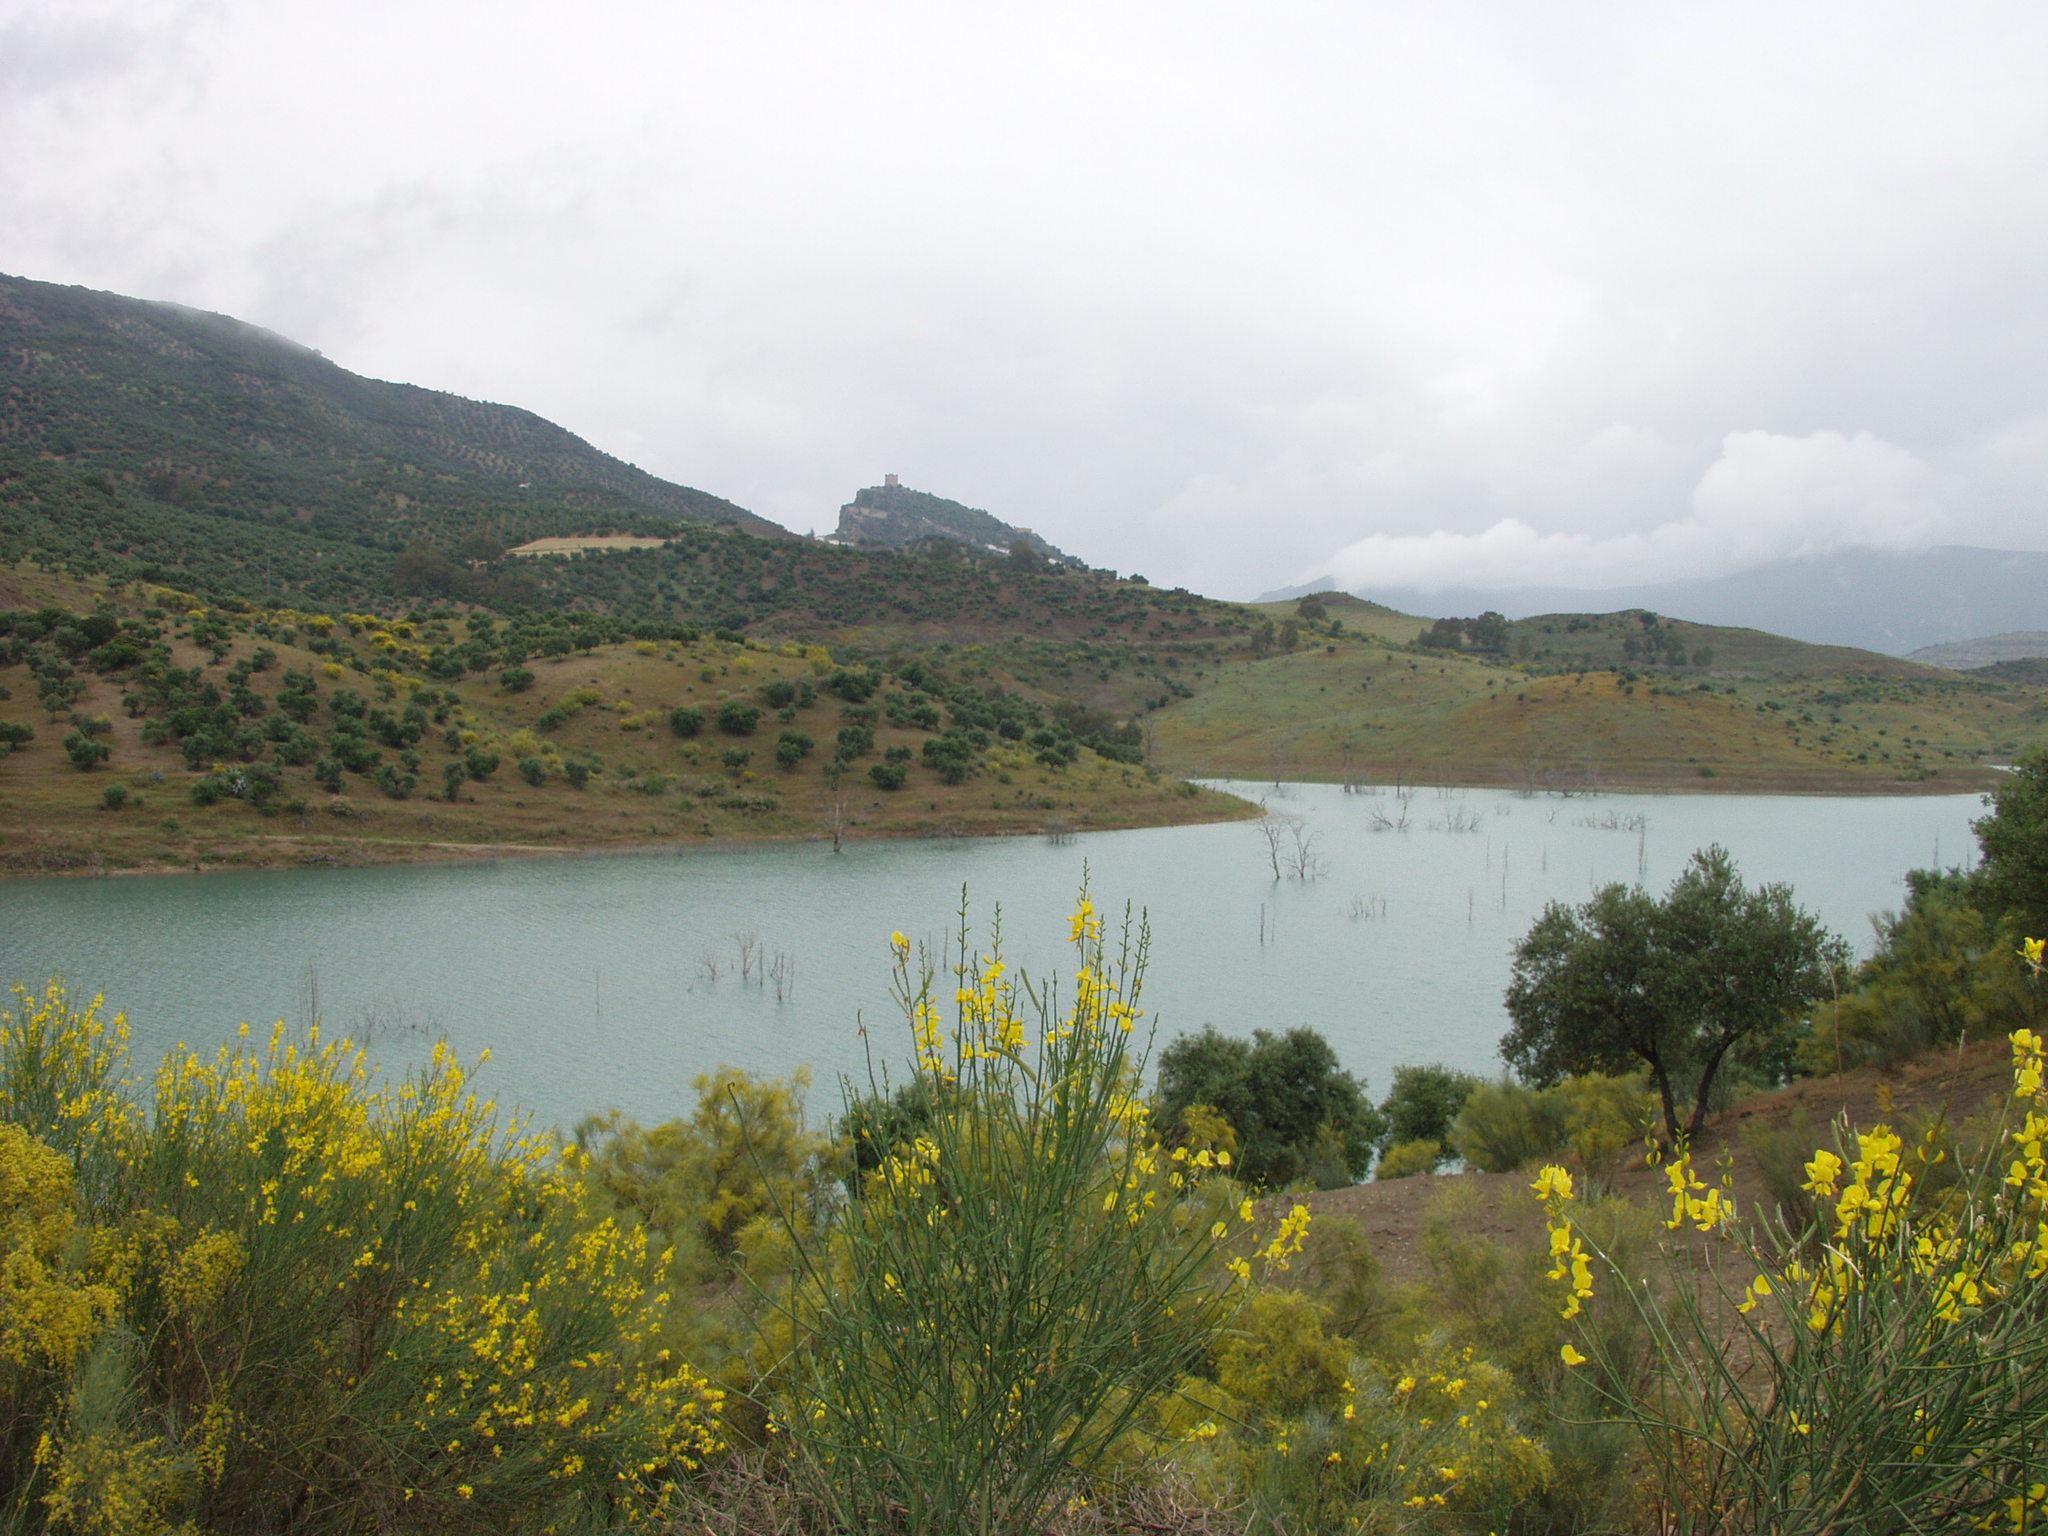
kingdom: Plantae
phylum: Tracheophyta
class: Magnoliopsida
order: Fabales
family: Fabaceae
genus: Spartium
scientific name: Spartium junceum
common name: Spanish broom
